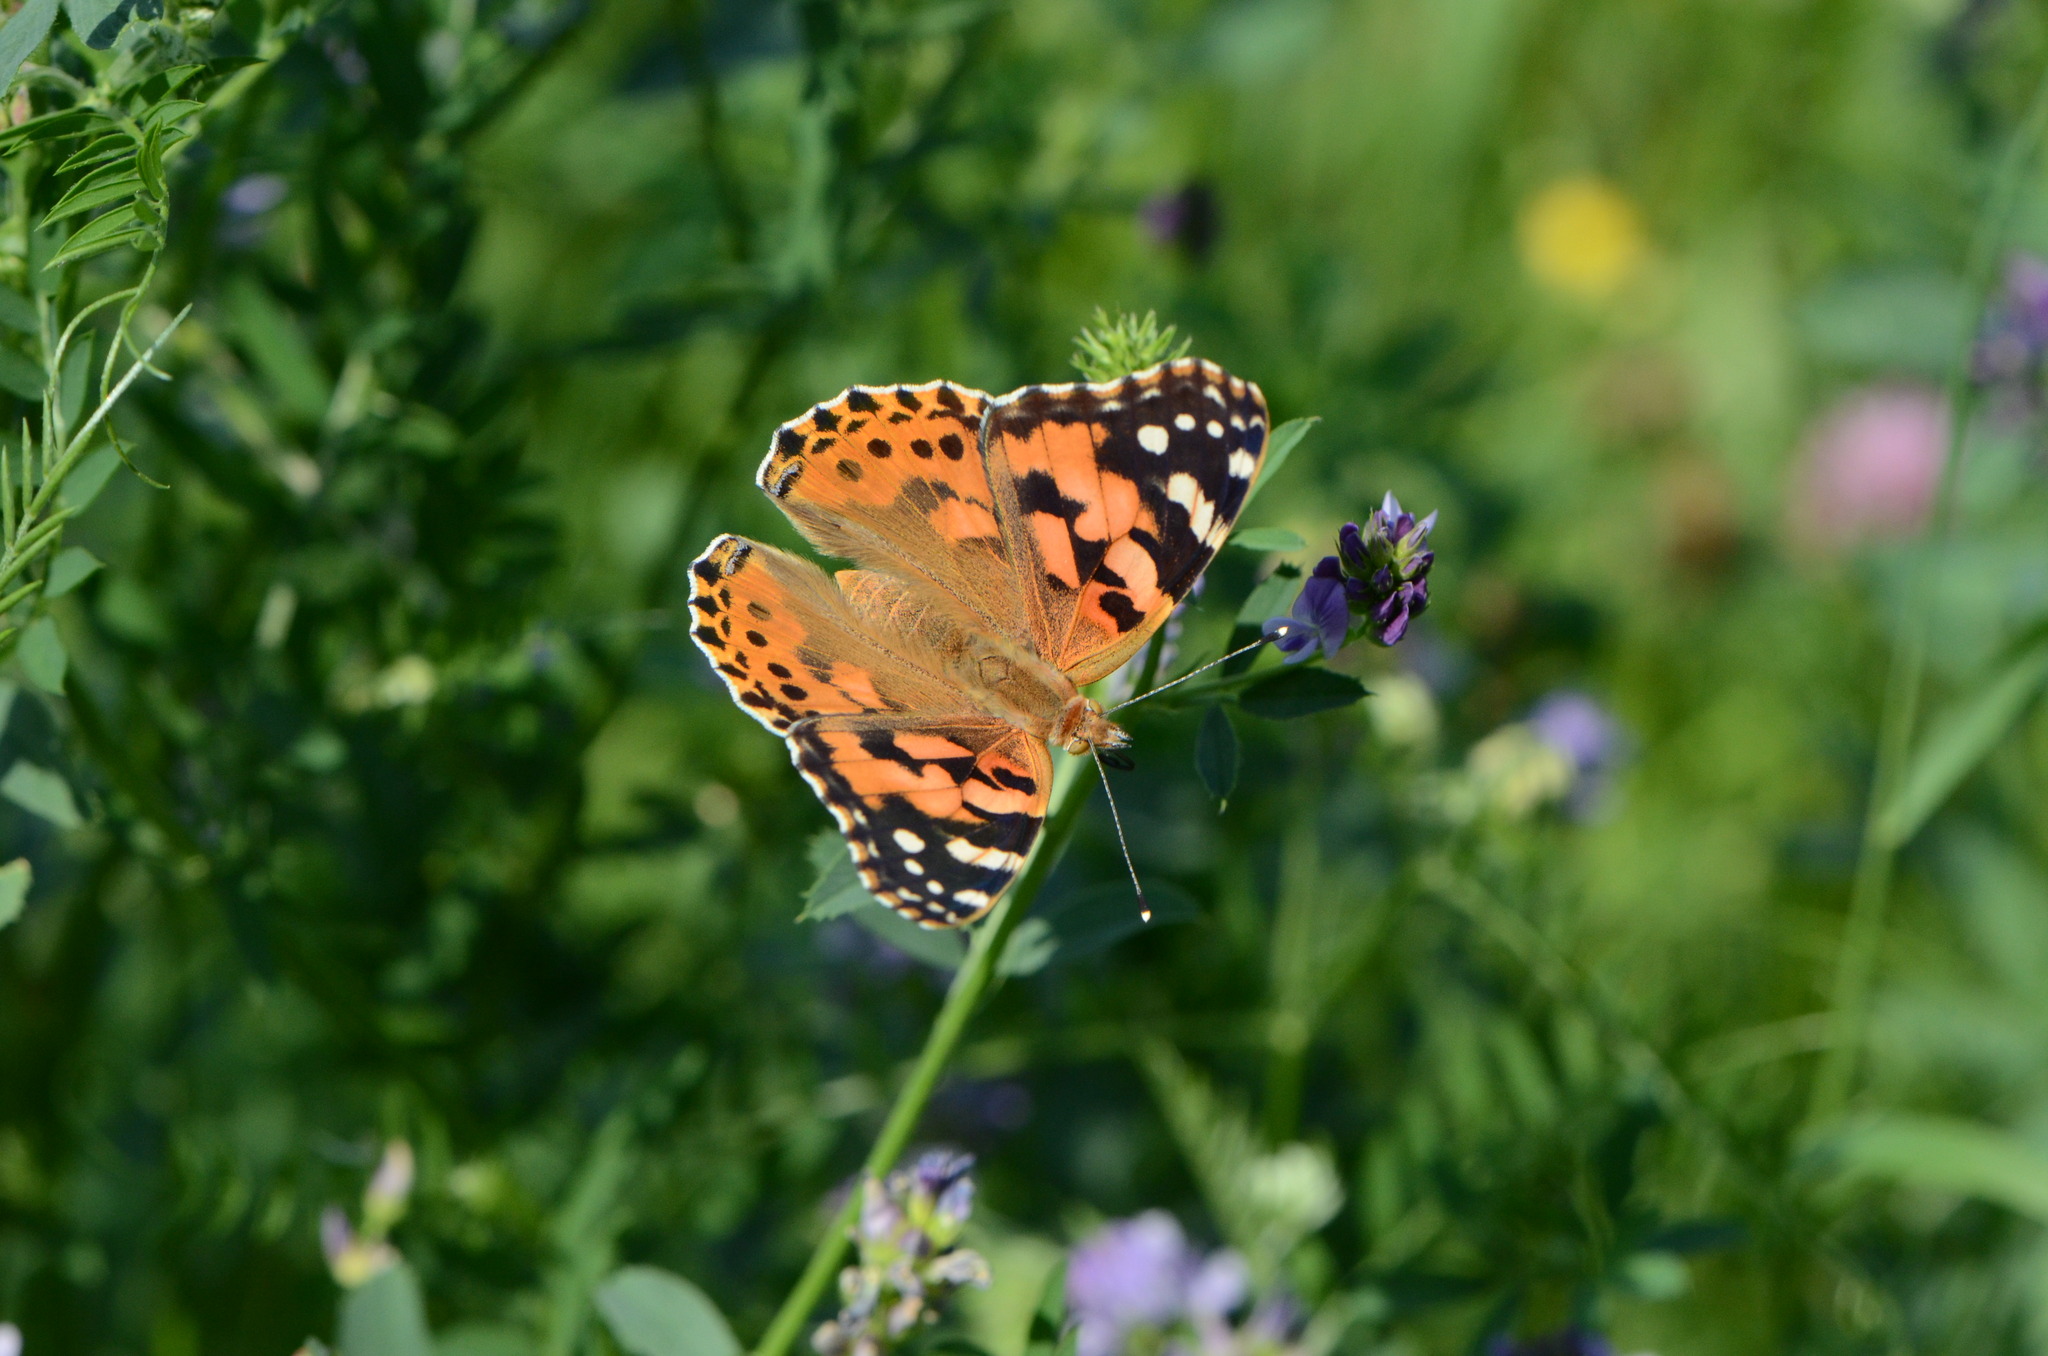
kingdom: Animalia
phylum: Arthropoda
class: Insecta
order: Lepidoptera
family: Nymphalidae
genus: Vanessa
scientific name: Vanessa cardui
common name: Painted lady
